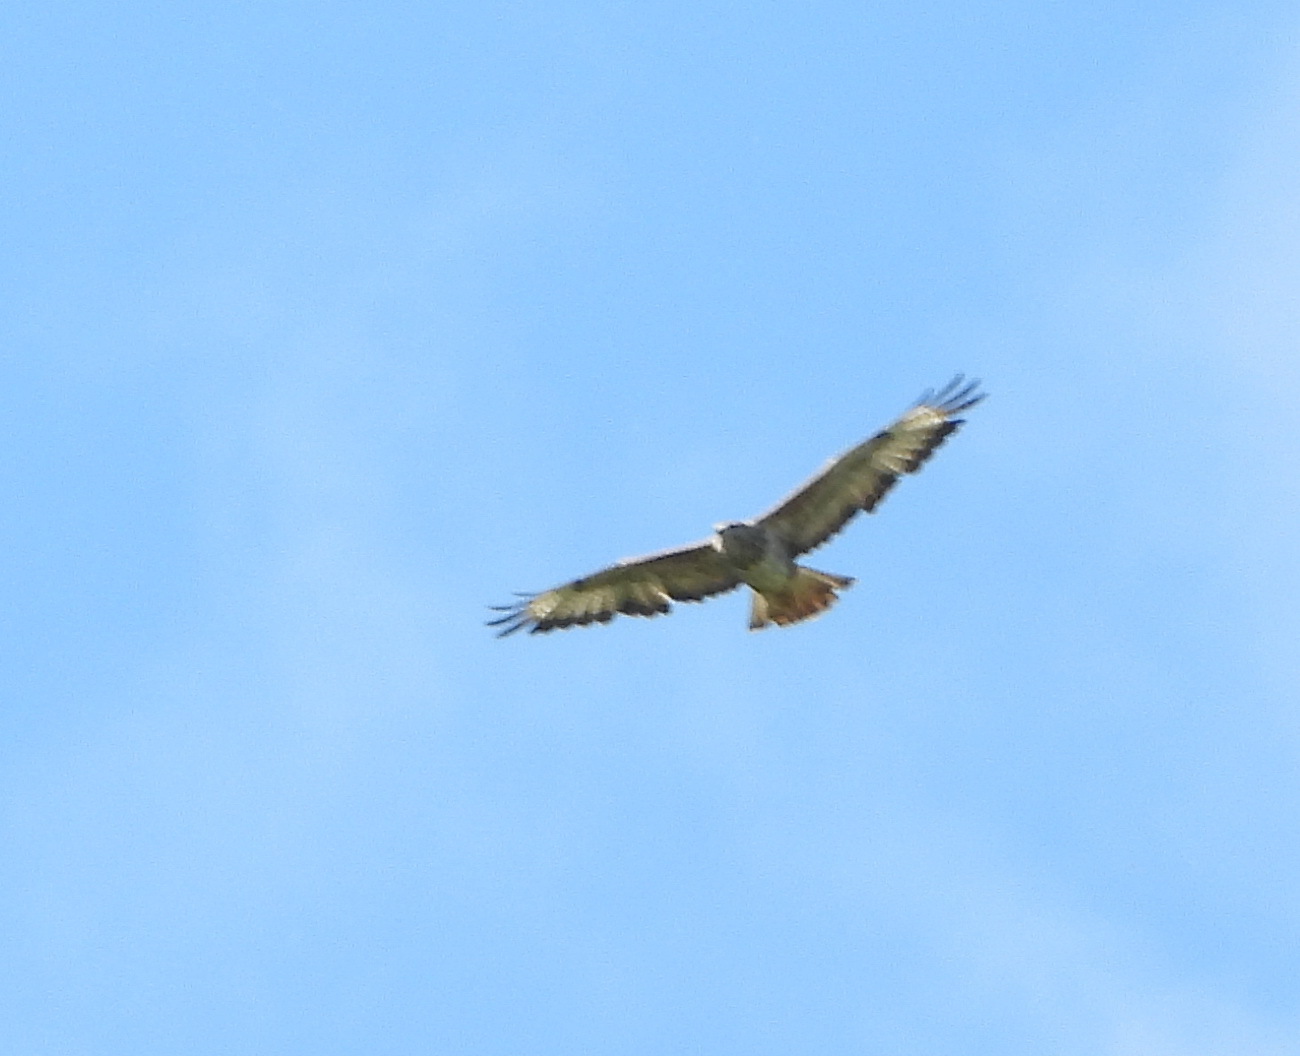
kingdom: Animalia
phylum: Chordata
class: Aves
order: Accipitriformes
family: Accipitridae
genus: Buteo
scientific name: Buteo buteo
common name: Common buzzard
